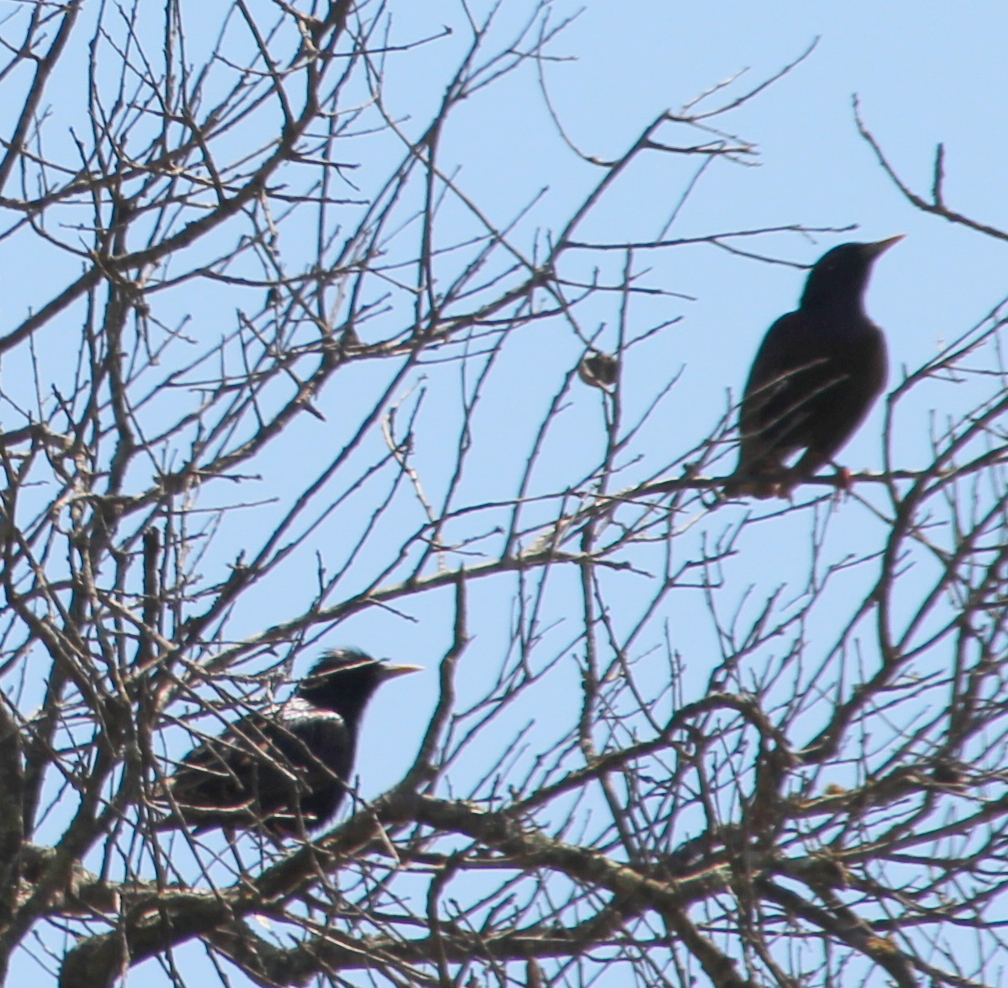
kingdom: Animalia
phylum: Chordata
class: Aves
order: Passeriformes
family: Sturnidae
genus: Sturnus
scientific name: Sturnus vulgaris
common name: Common starling
